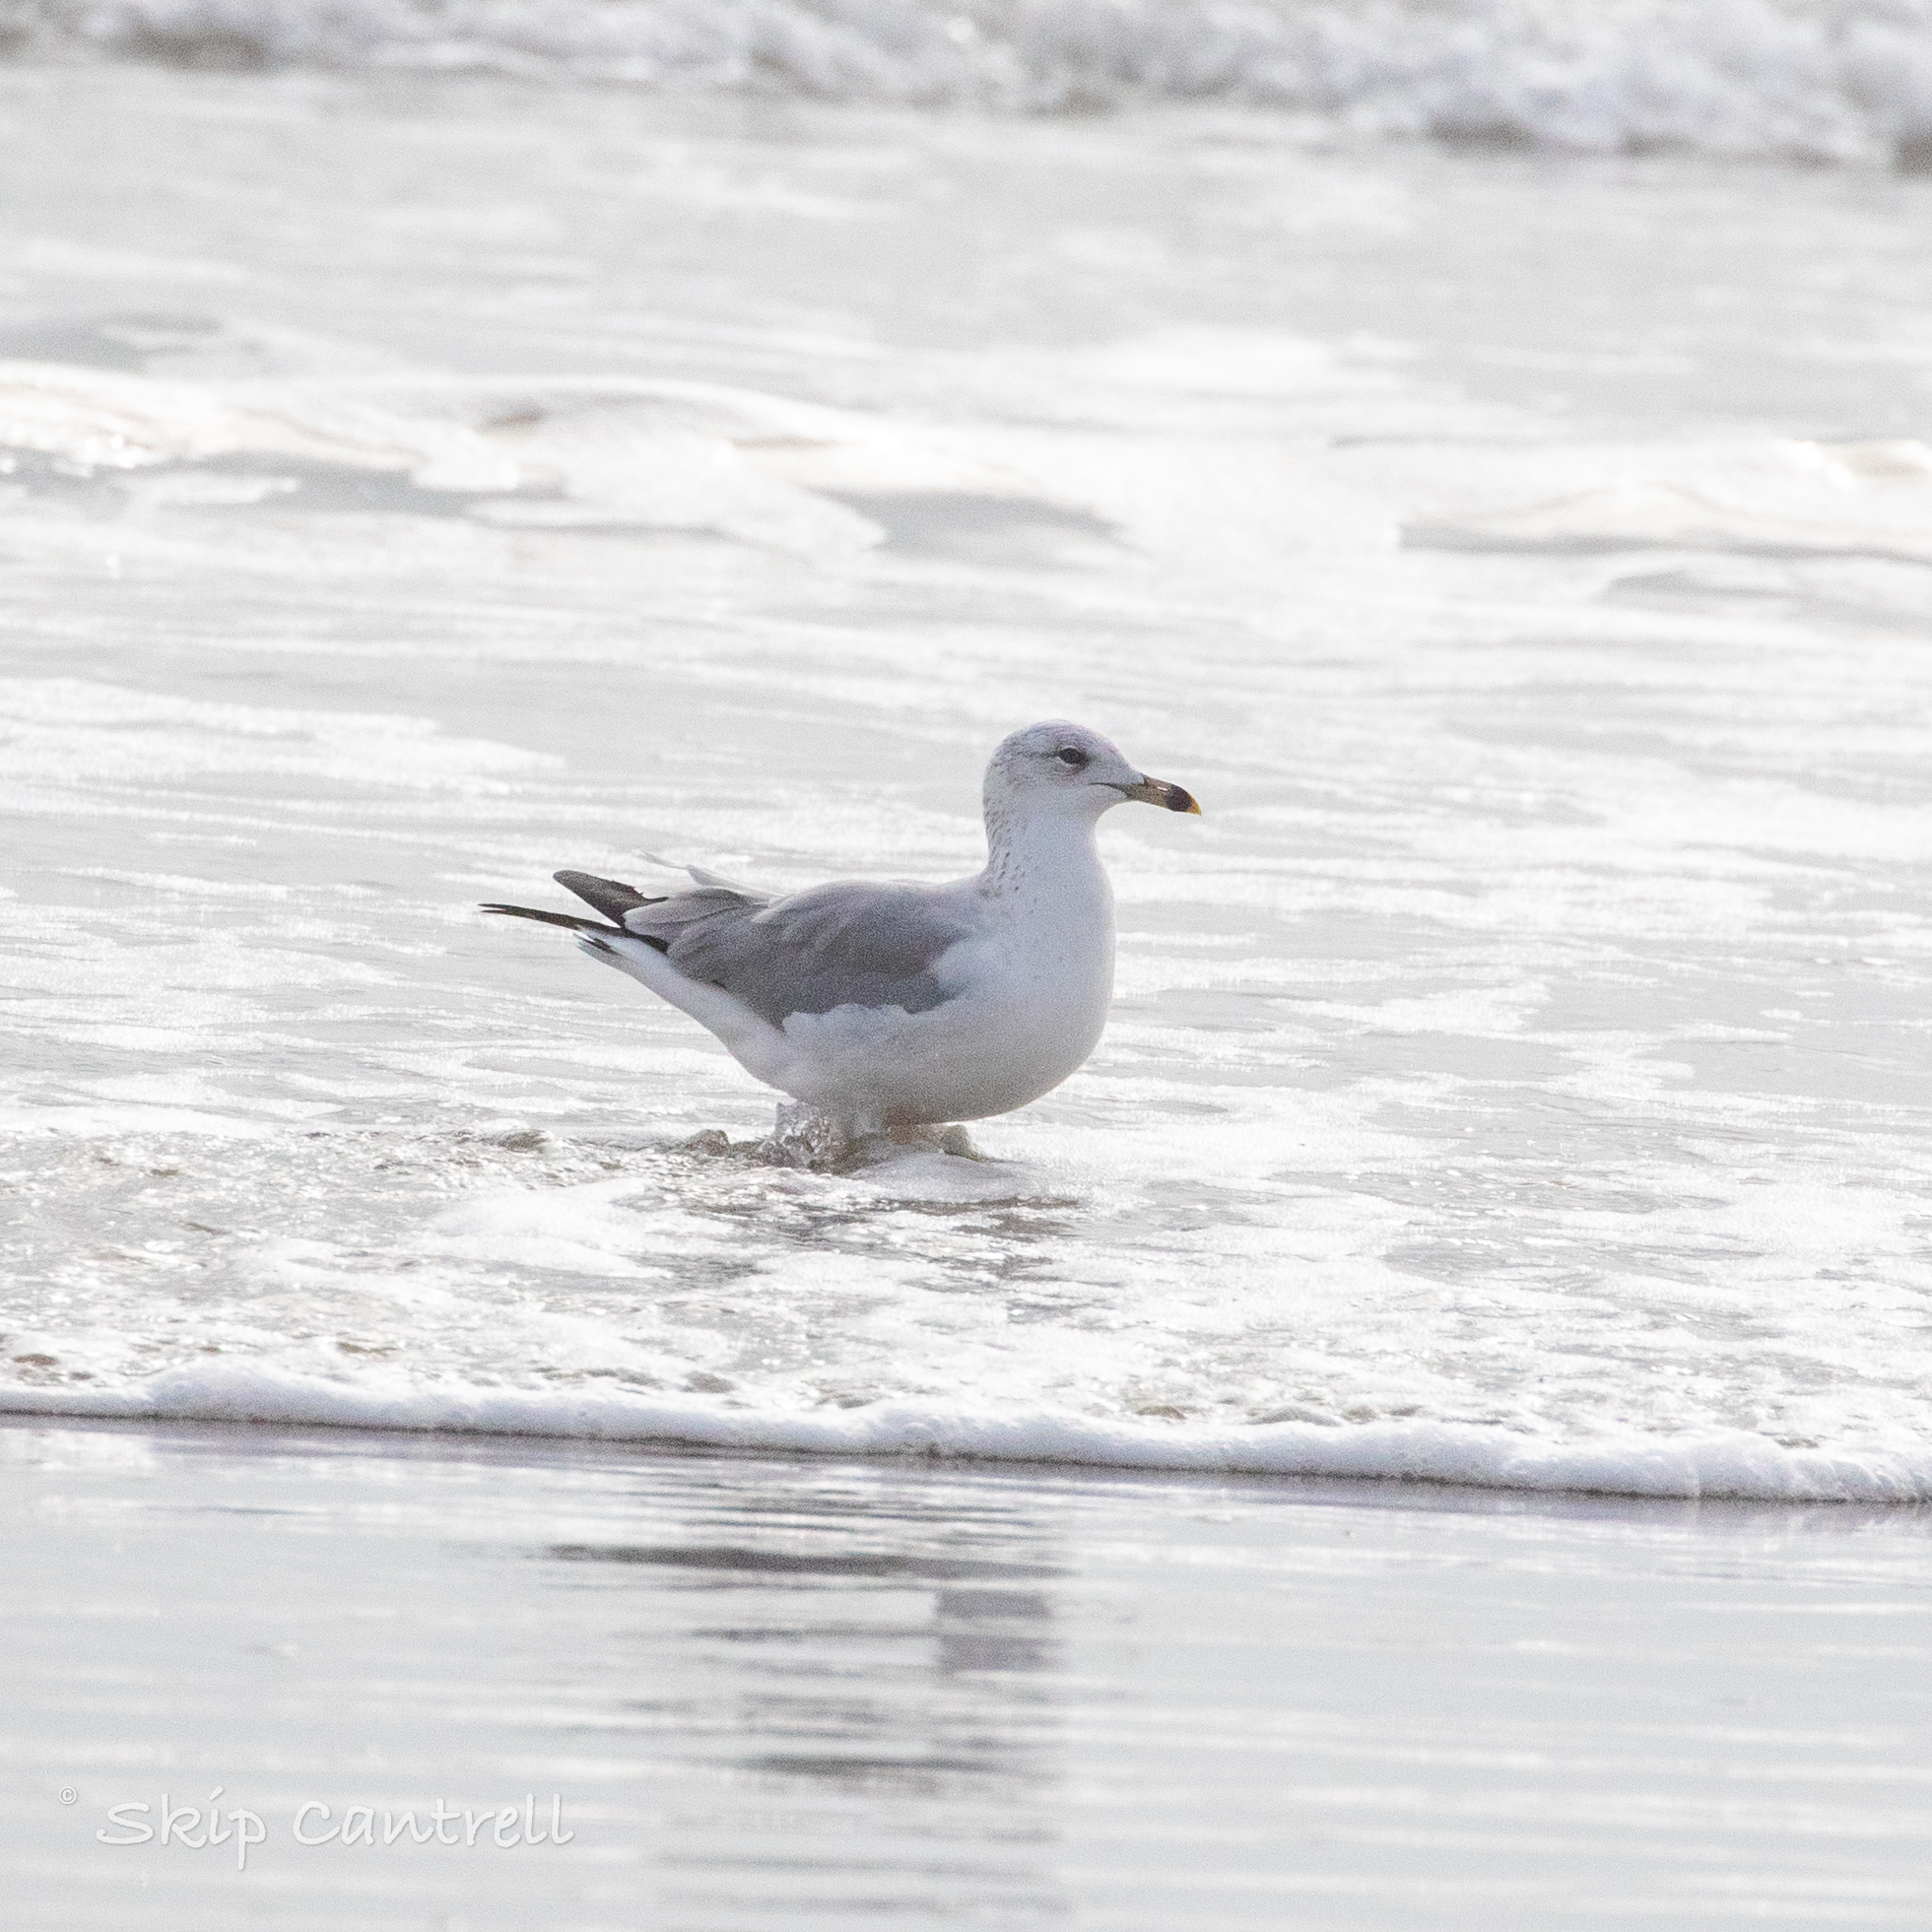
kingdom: Animalia
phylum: Chordata
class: Aves
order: Charadriiformes
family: Laridae
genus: Larus
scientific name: Larus delawarensis
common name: Ring-billed gull
